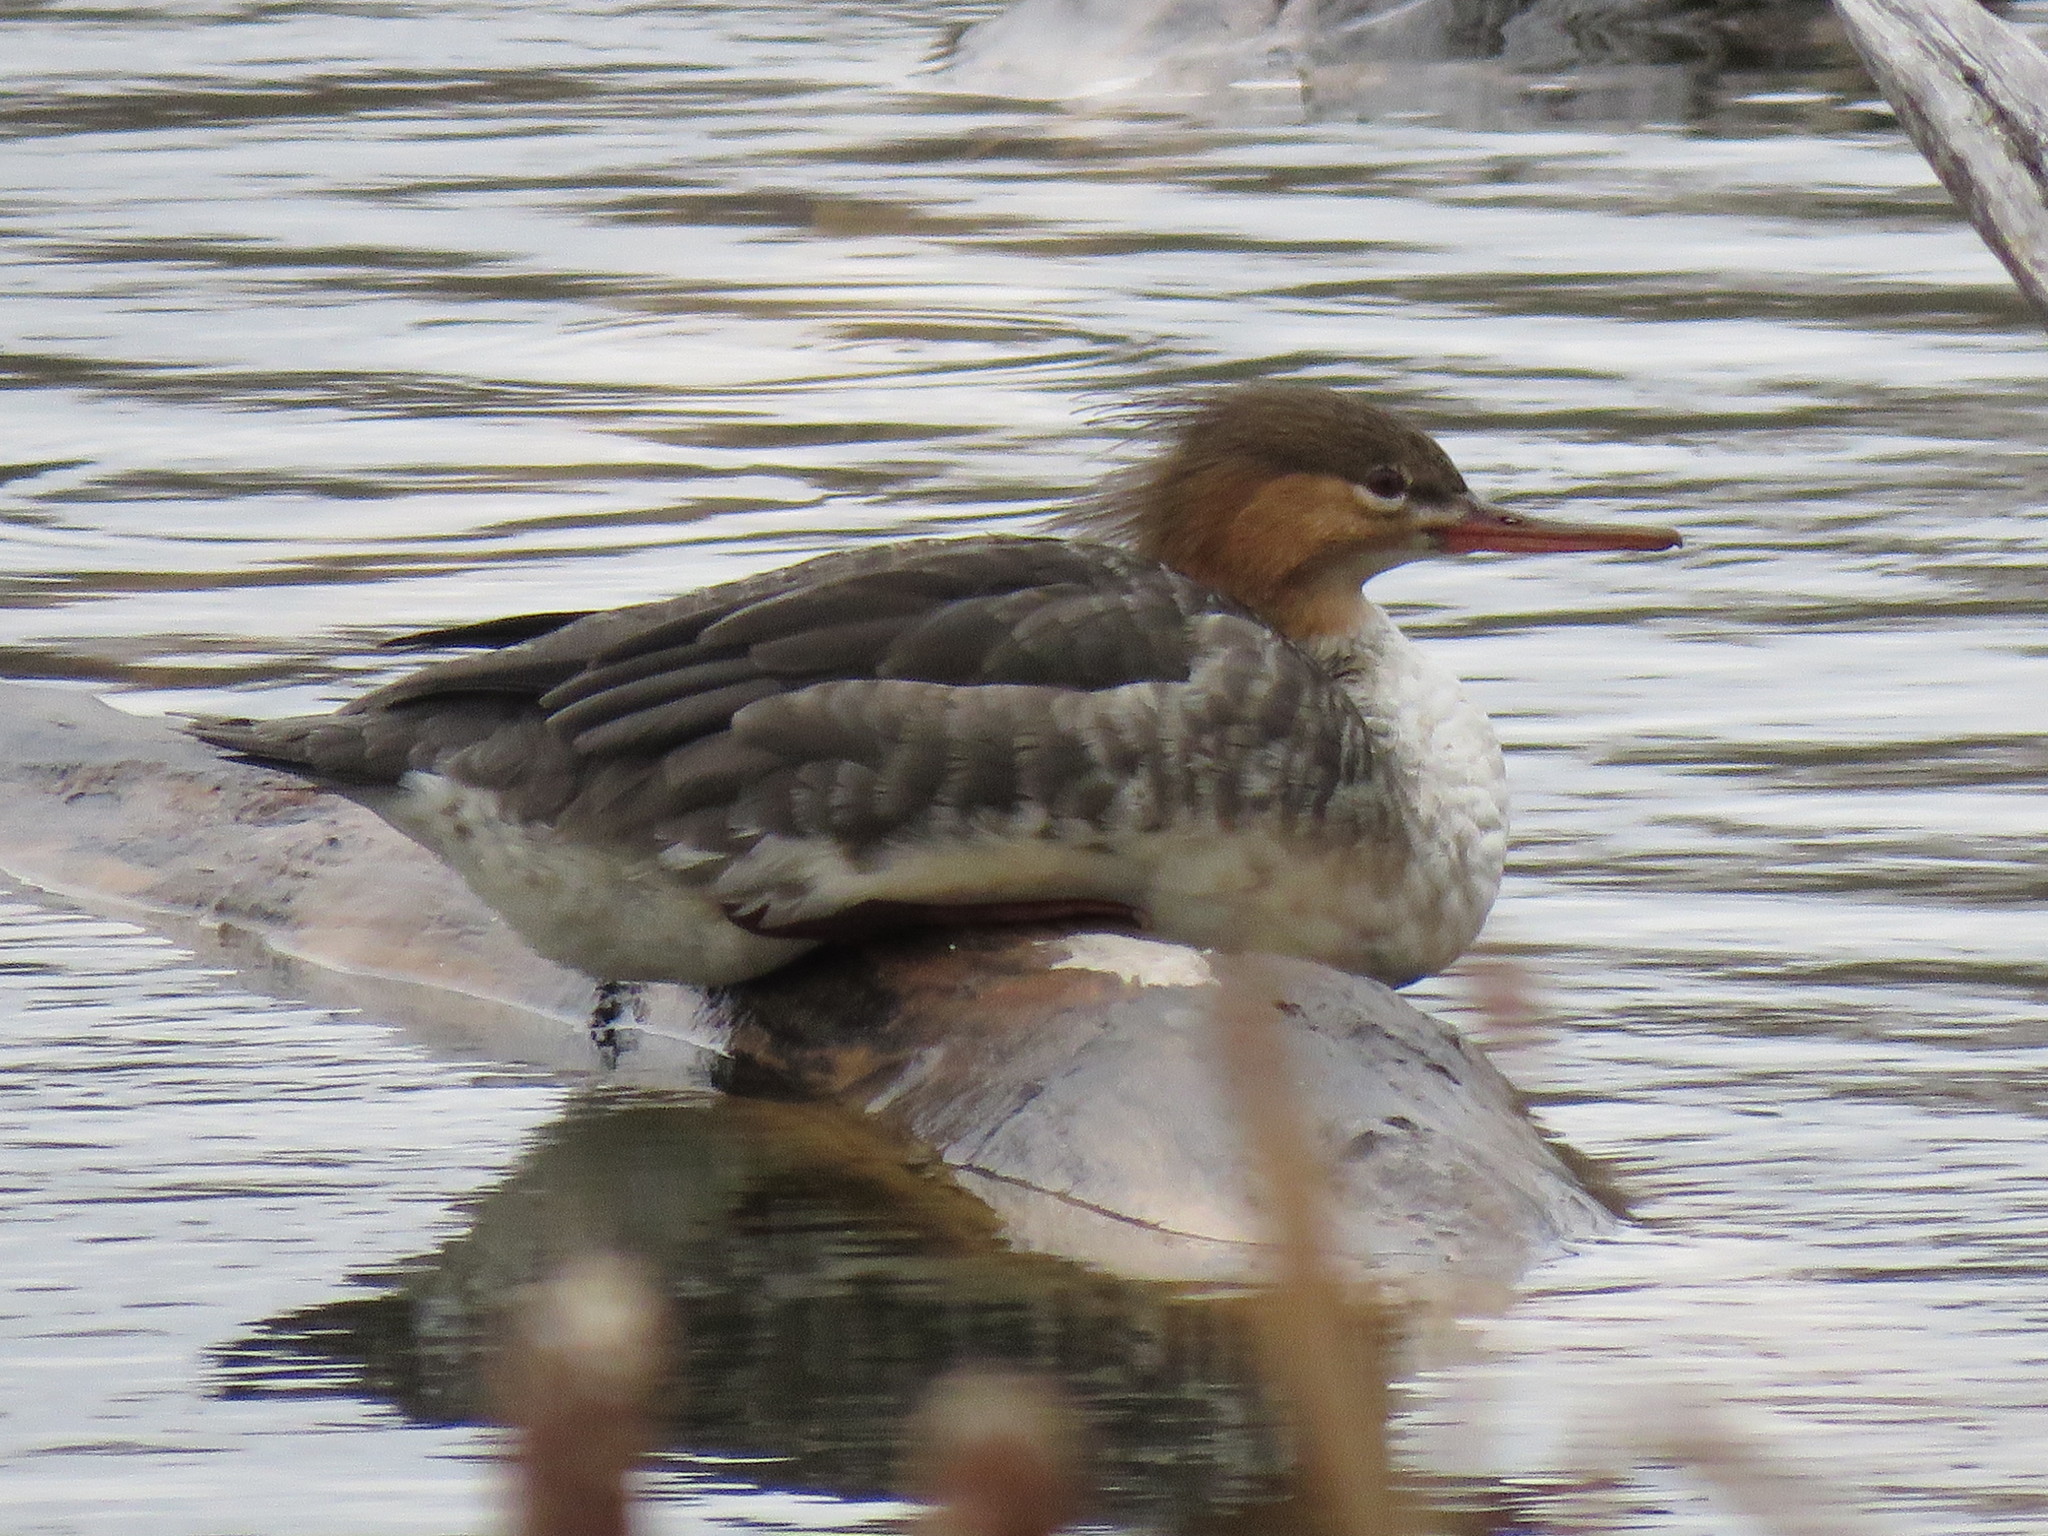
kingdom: Animalia
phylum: Chordata
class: Aves
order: Anseriformes
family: Anatidae
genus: Mergus
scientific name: Mergus serrator
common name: Red-breasted merganser
